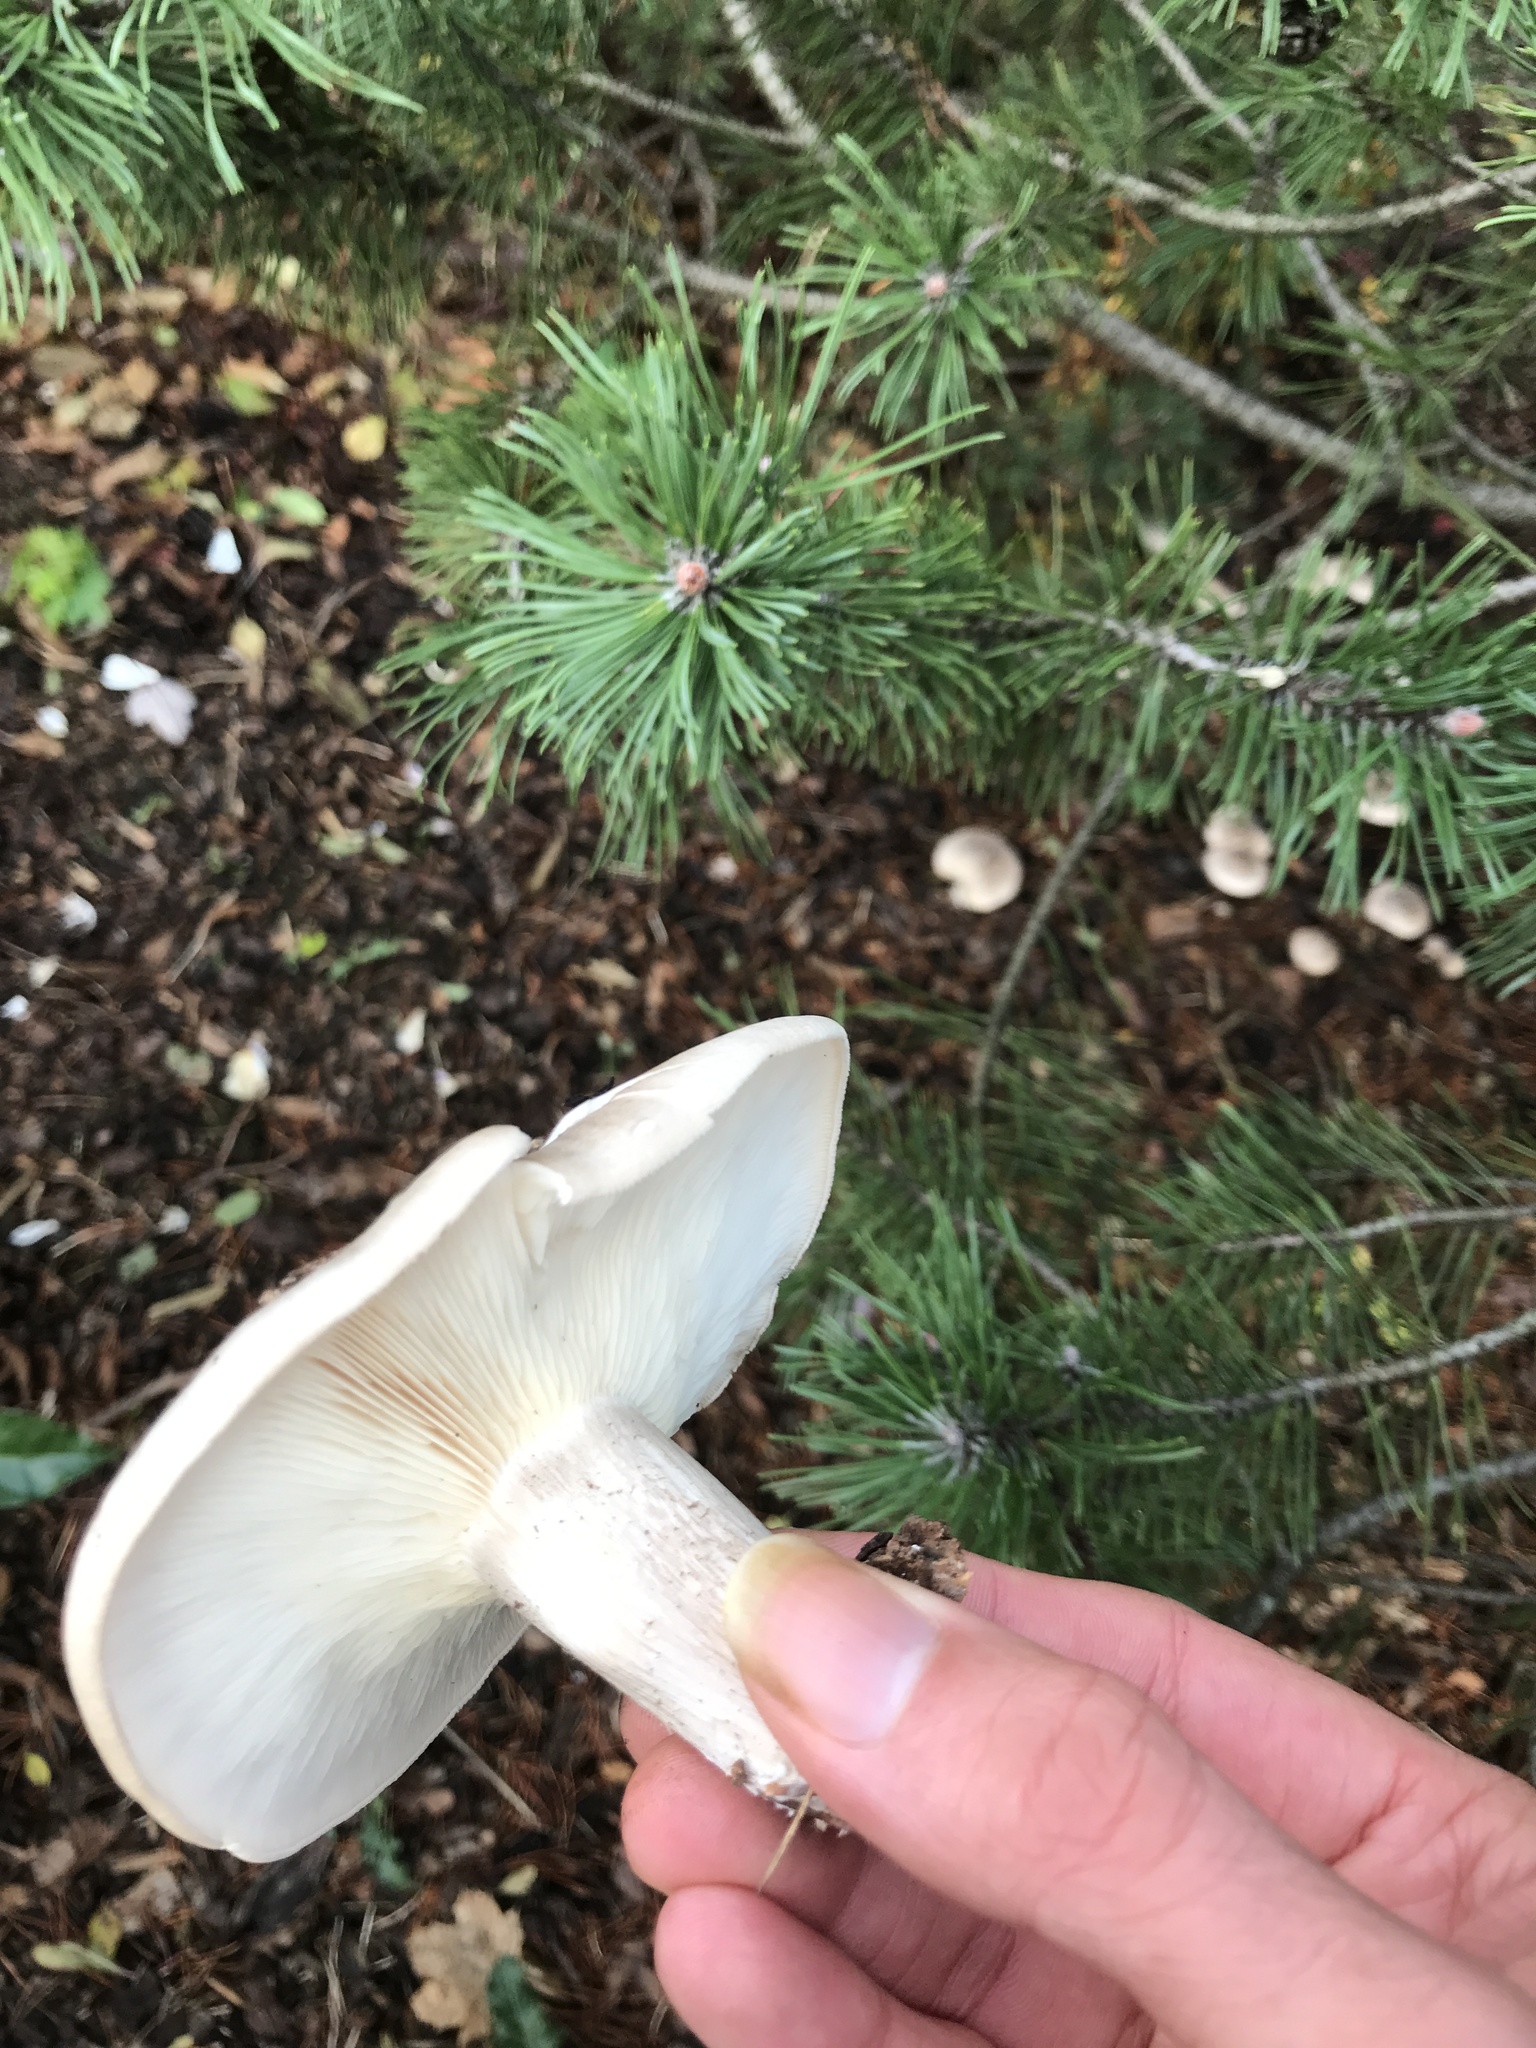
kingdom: Fungi
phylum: Basidiomycota
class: Agaricomycetes
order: Agaricales
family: Tricholomataceae
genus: Clitocybe
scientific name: Clitocybe nebularis
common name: Clouded agaric
